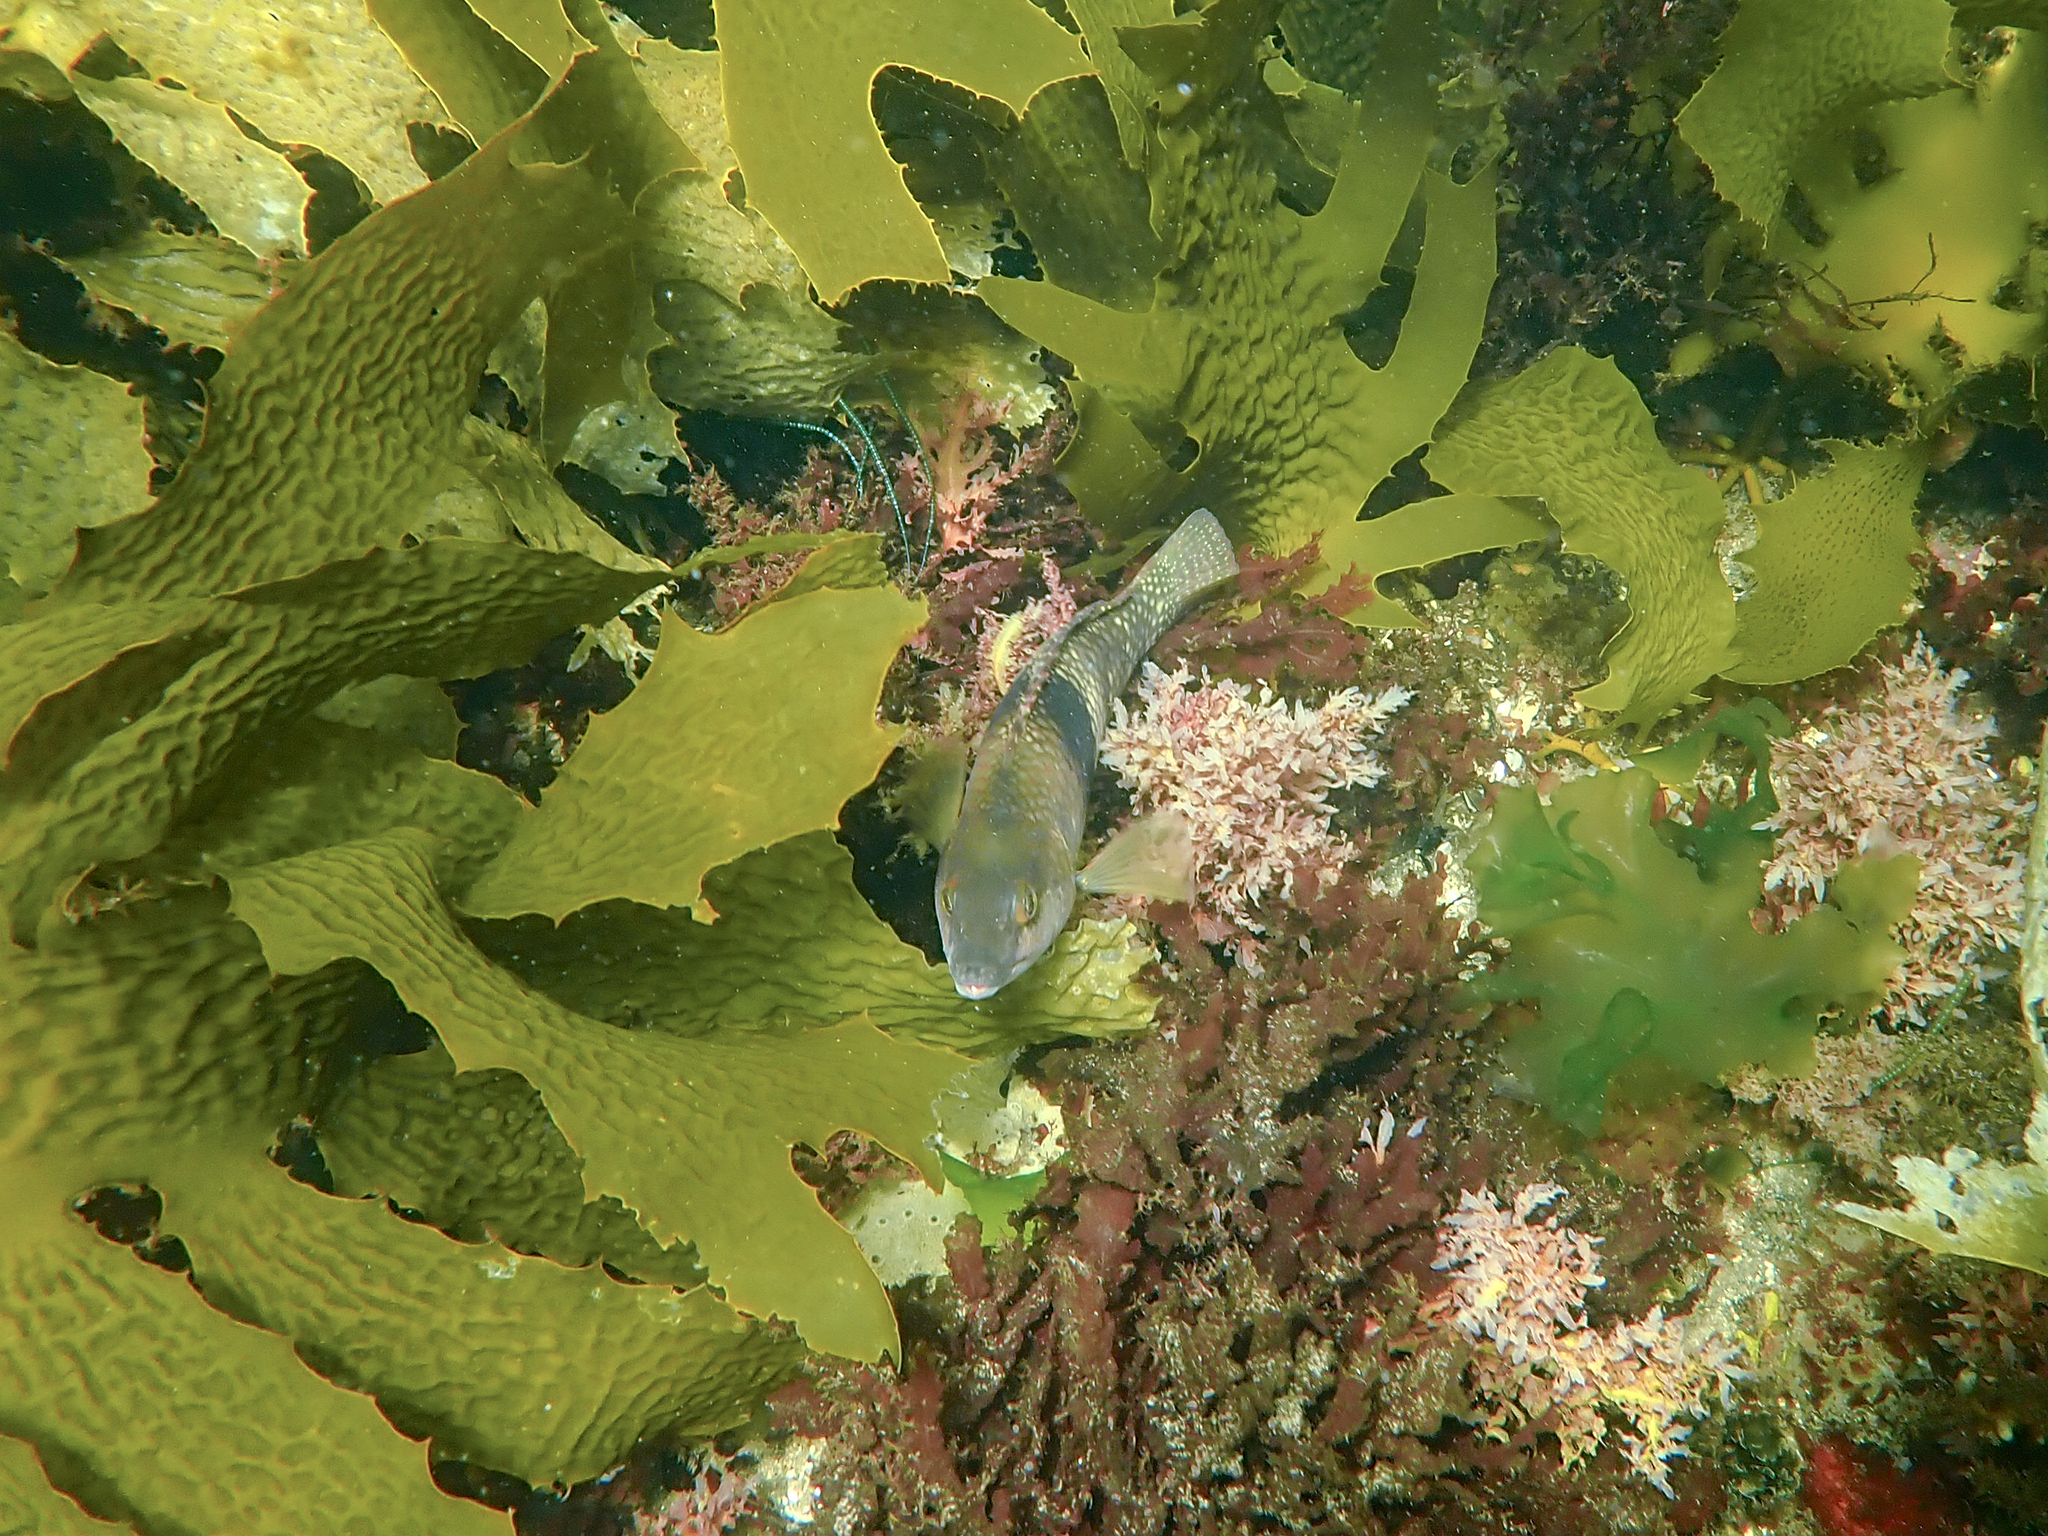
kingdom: Animalia
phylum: Chordata
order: Perciformes
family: Labridae
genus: Notolabrus
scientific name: Notolabrus tetricus
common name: Blue-throated parrotfish
